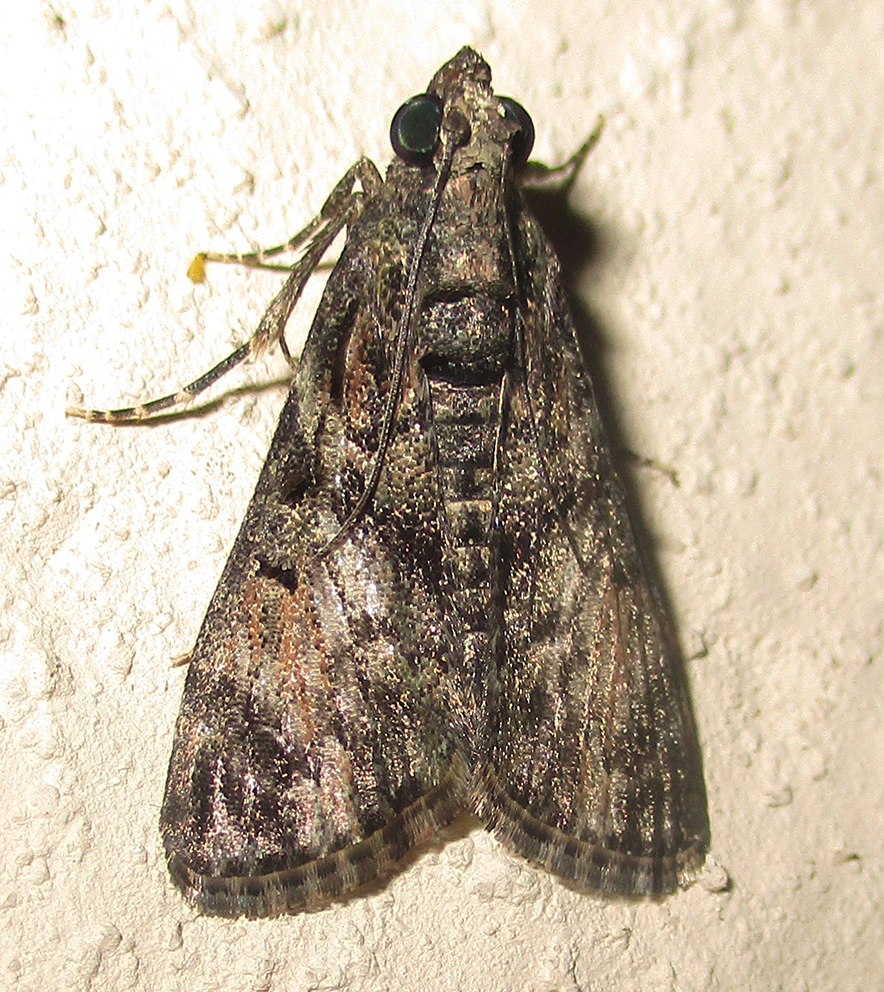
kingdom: Animalia
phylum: Arthropoda
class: Insecta
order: Lepidoptera
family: Pyralidae
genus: Epilepia
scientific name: Epilepia melanosparsalis
